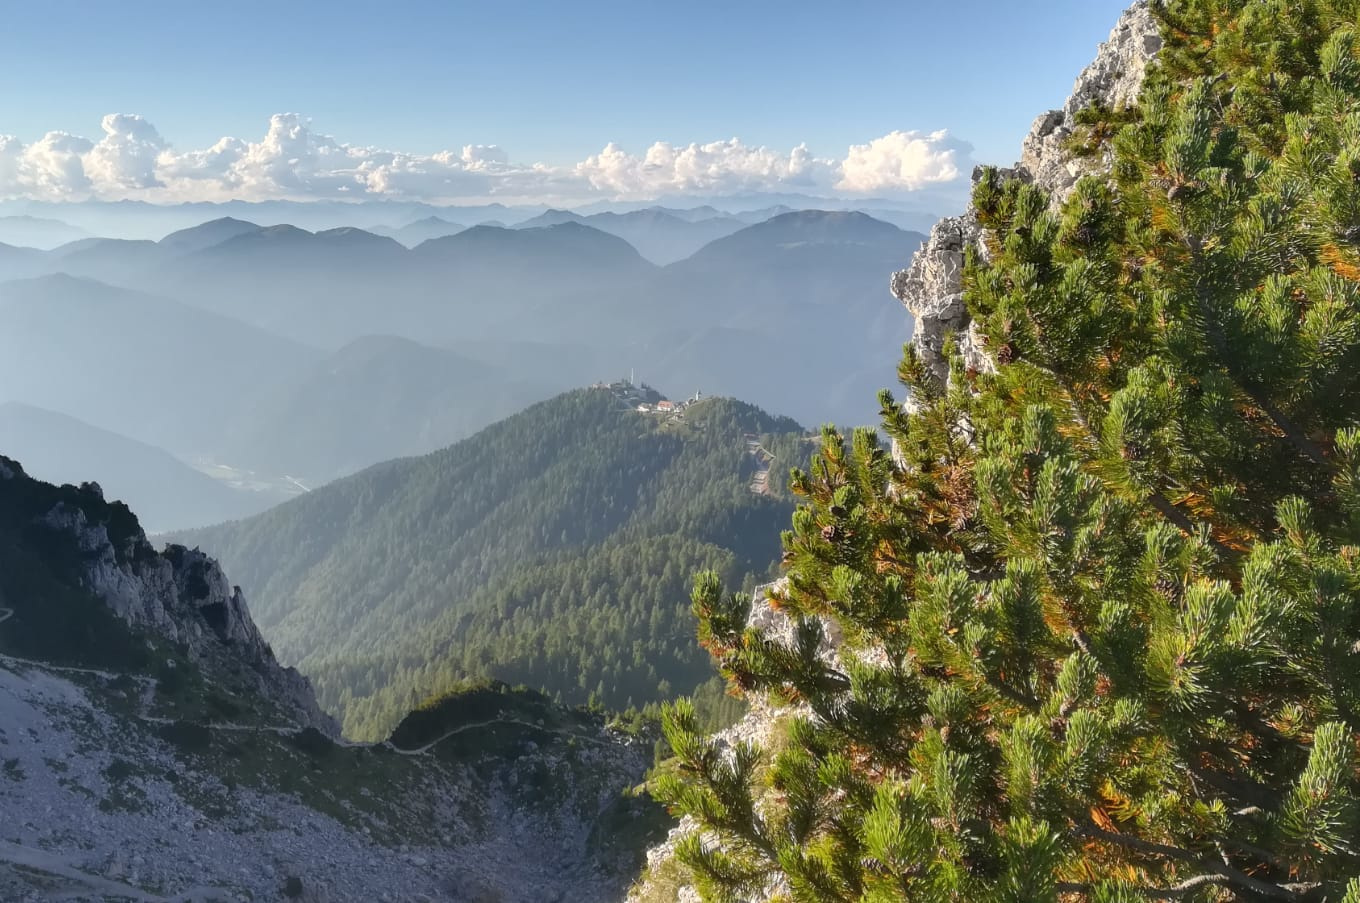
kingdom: Plantae
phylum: Tracheophyta
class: Pinopsida
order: Pinales
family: Pinaceae
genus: Pinus
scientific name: Pinus mugo
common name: Mugo pine
